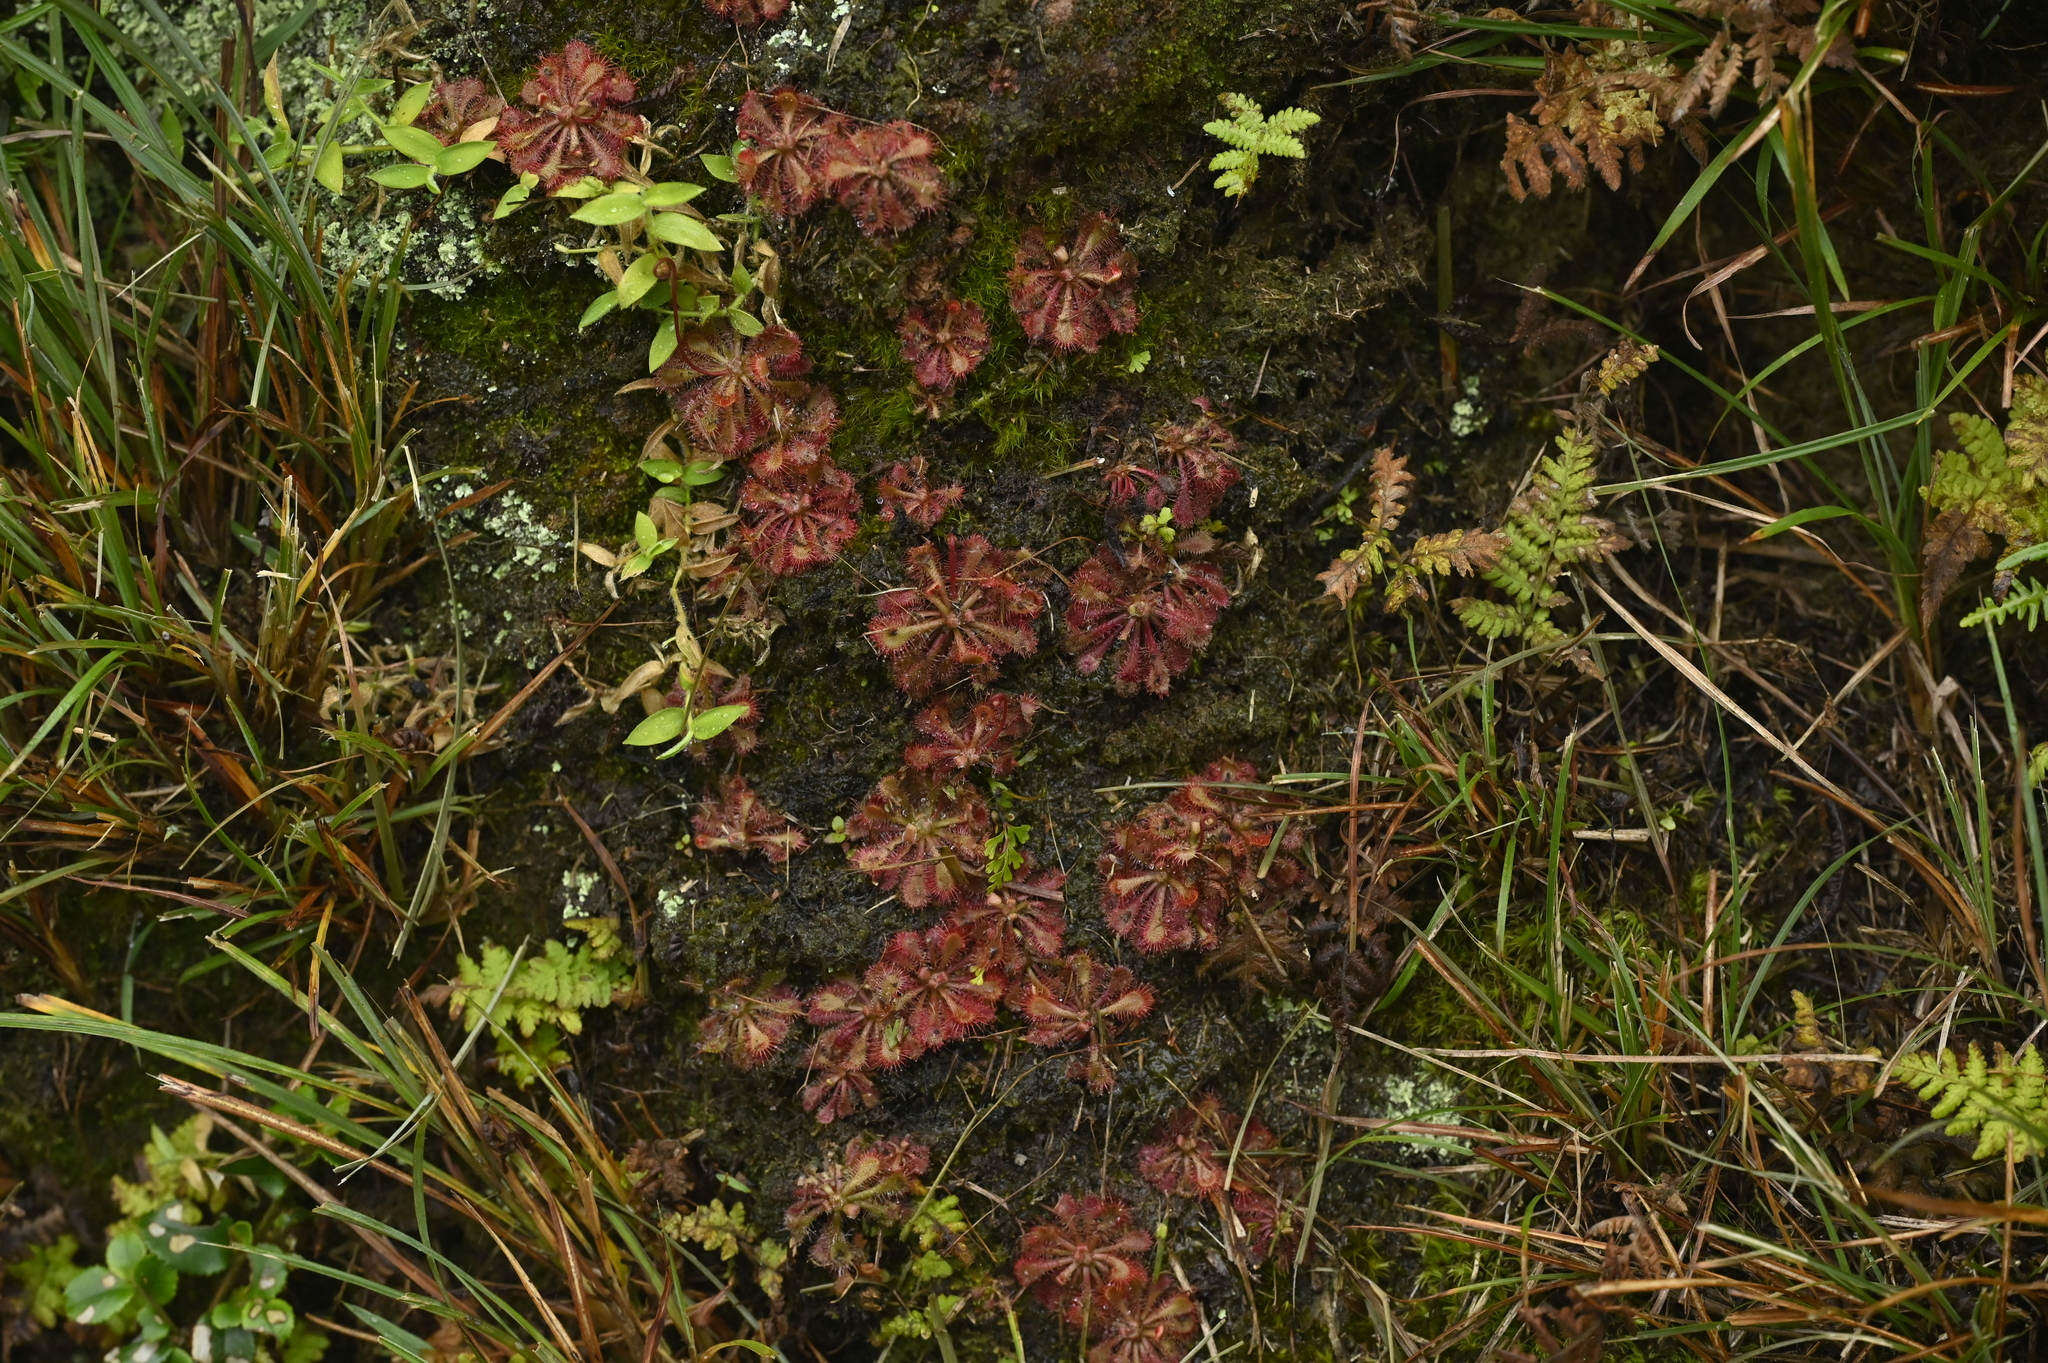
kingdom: Plantae
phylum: Tracheophyta
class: Magnoliopsida
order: Caryophyllales
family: Droseraceae
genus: Drosera
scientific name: Drosera spatulata
